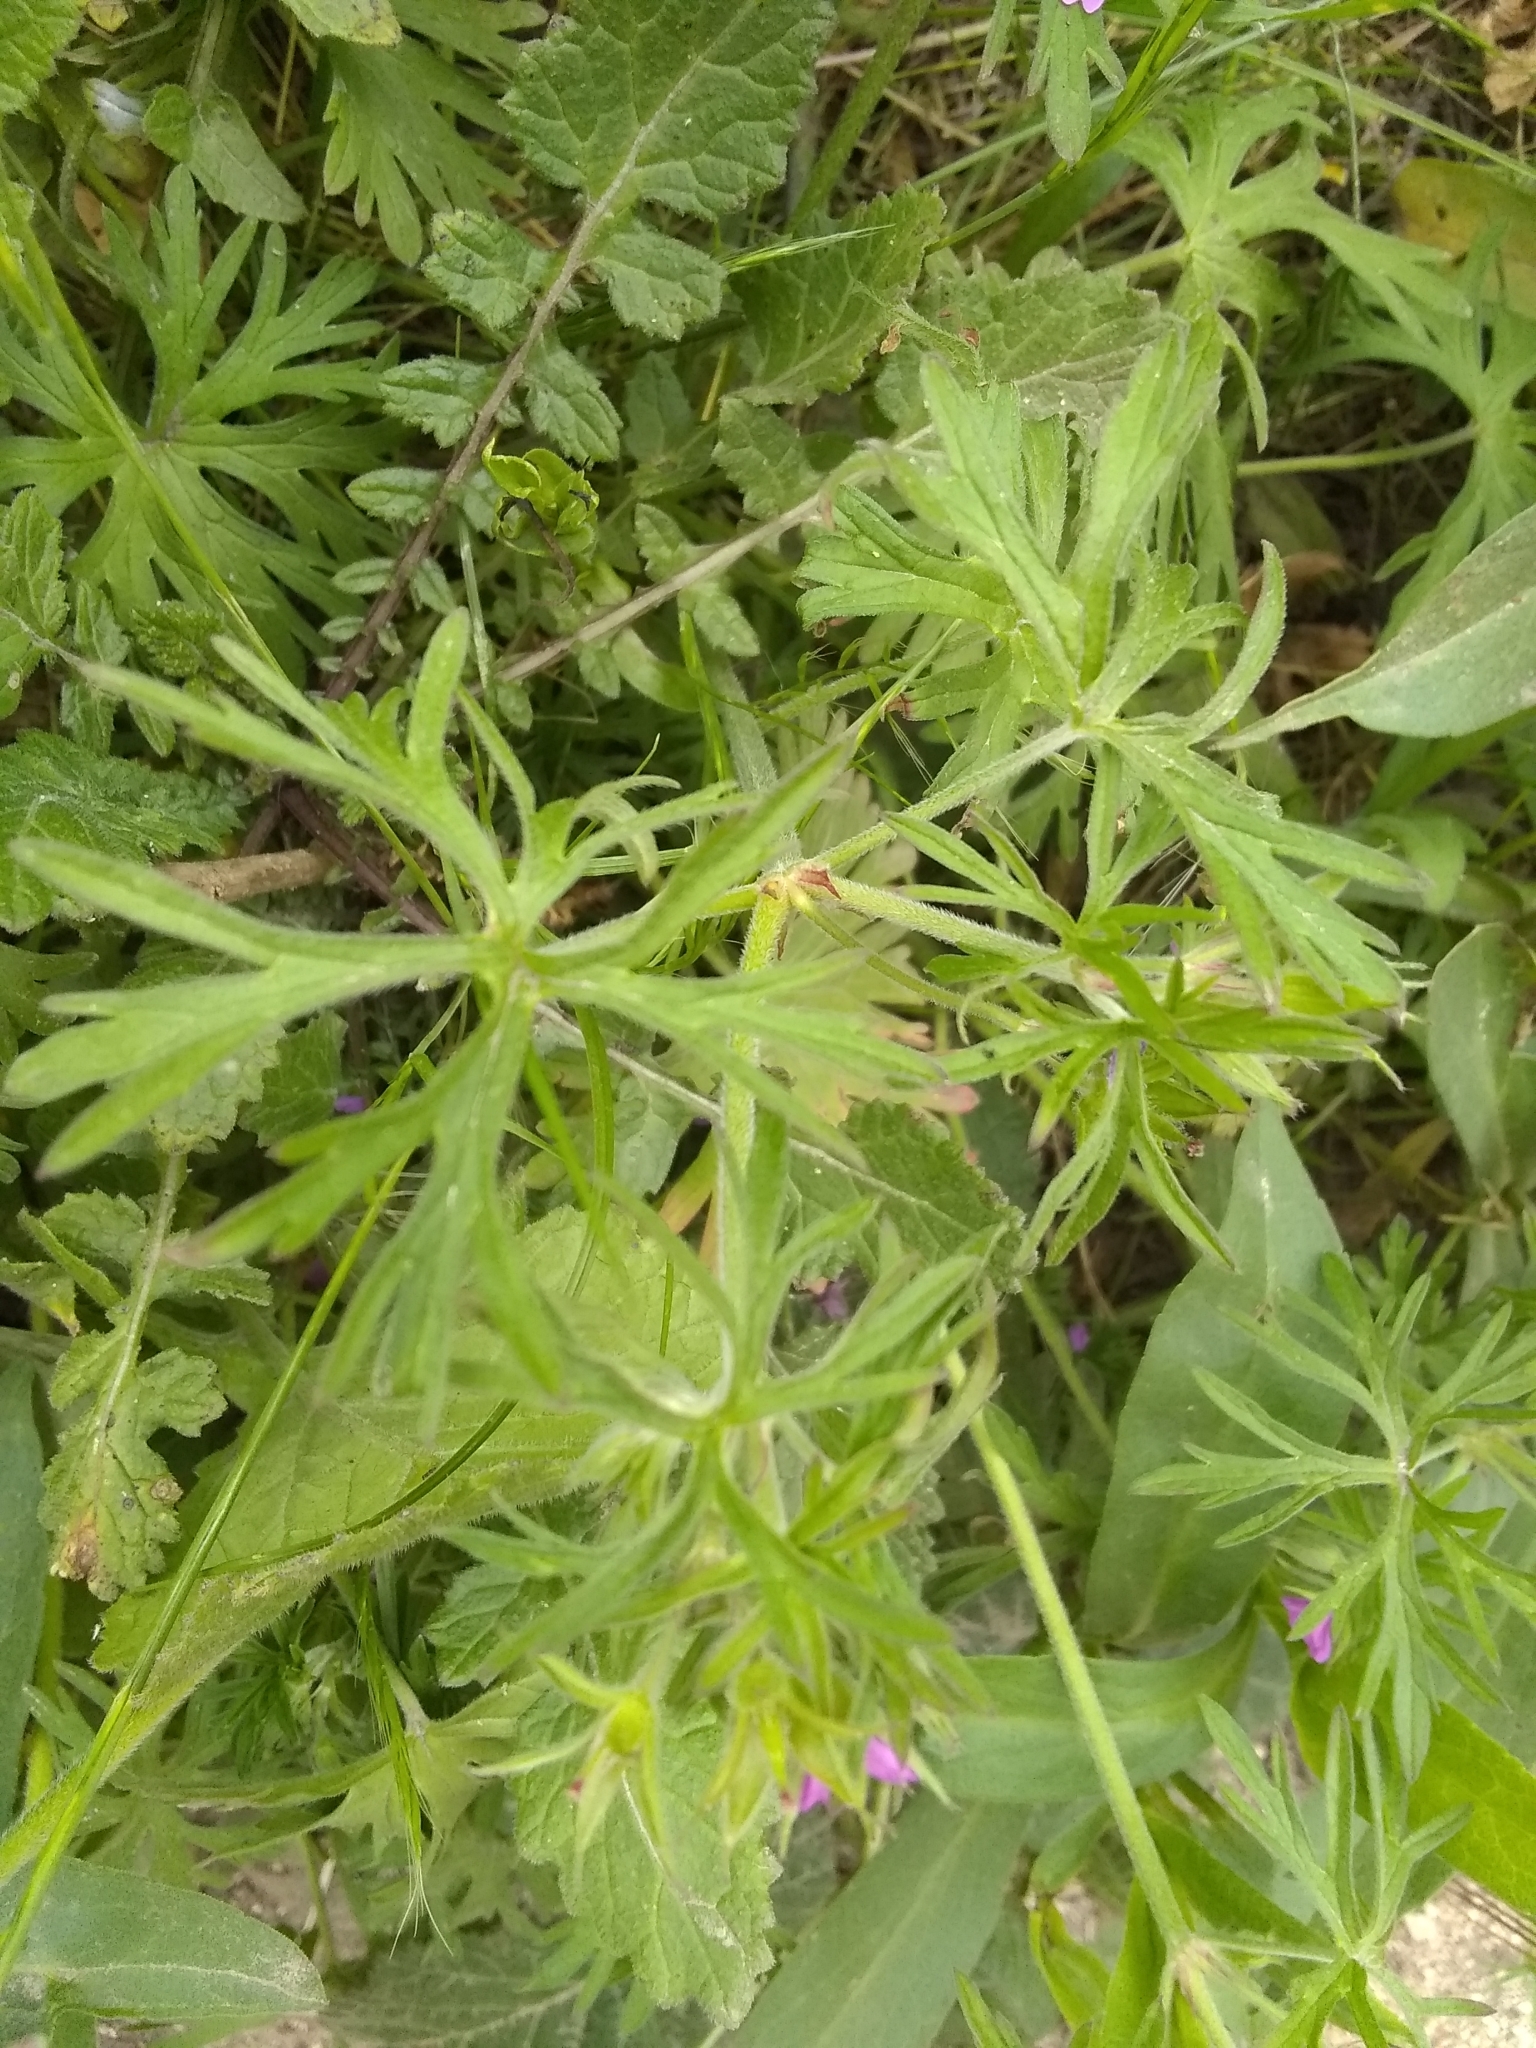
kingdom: Plantae
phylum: Tracheophyta
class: Magnoliopsida
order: Geraniales
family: Geraniaceae
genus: Geranium
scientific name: Geranium dissectum
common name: Cut-leaved crane's-bill
